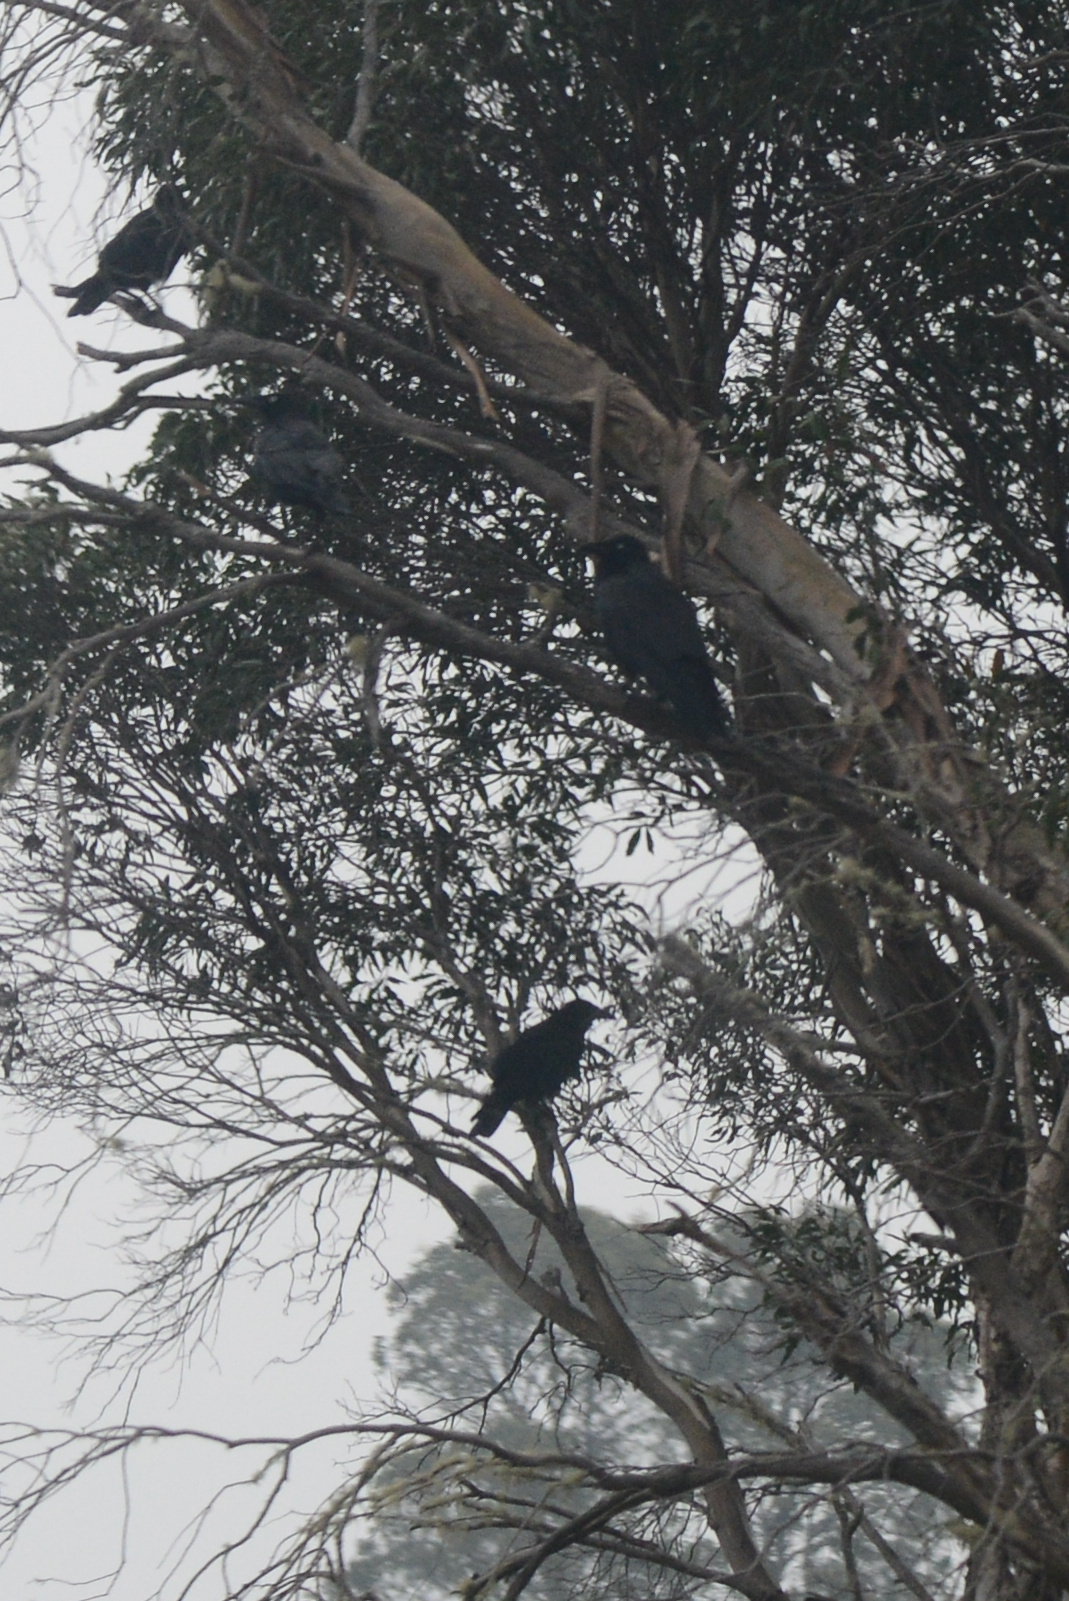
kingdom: Animalia
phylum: Chordata
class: Aves
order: Passeriformes
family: Corvidae
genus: Corvus
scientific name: Corvus tasmanicus
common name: Forest raven
